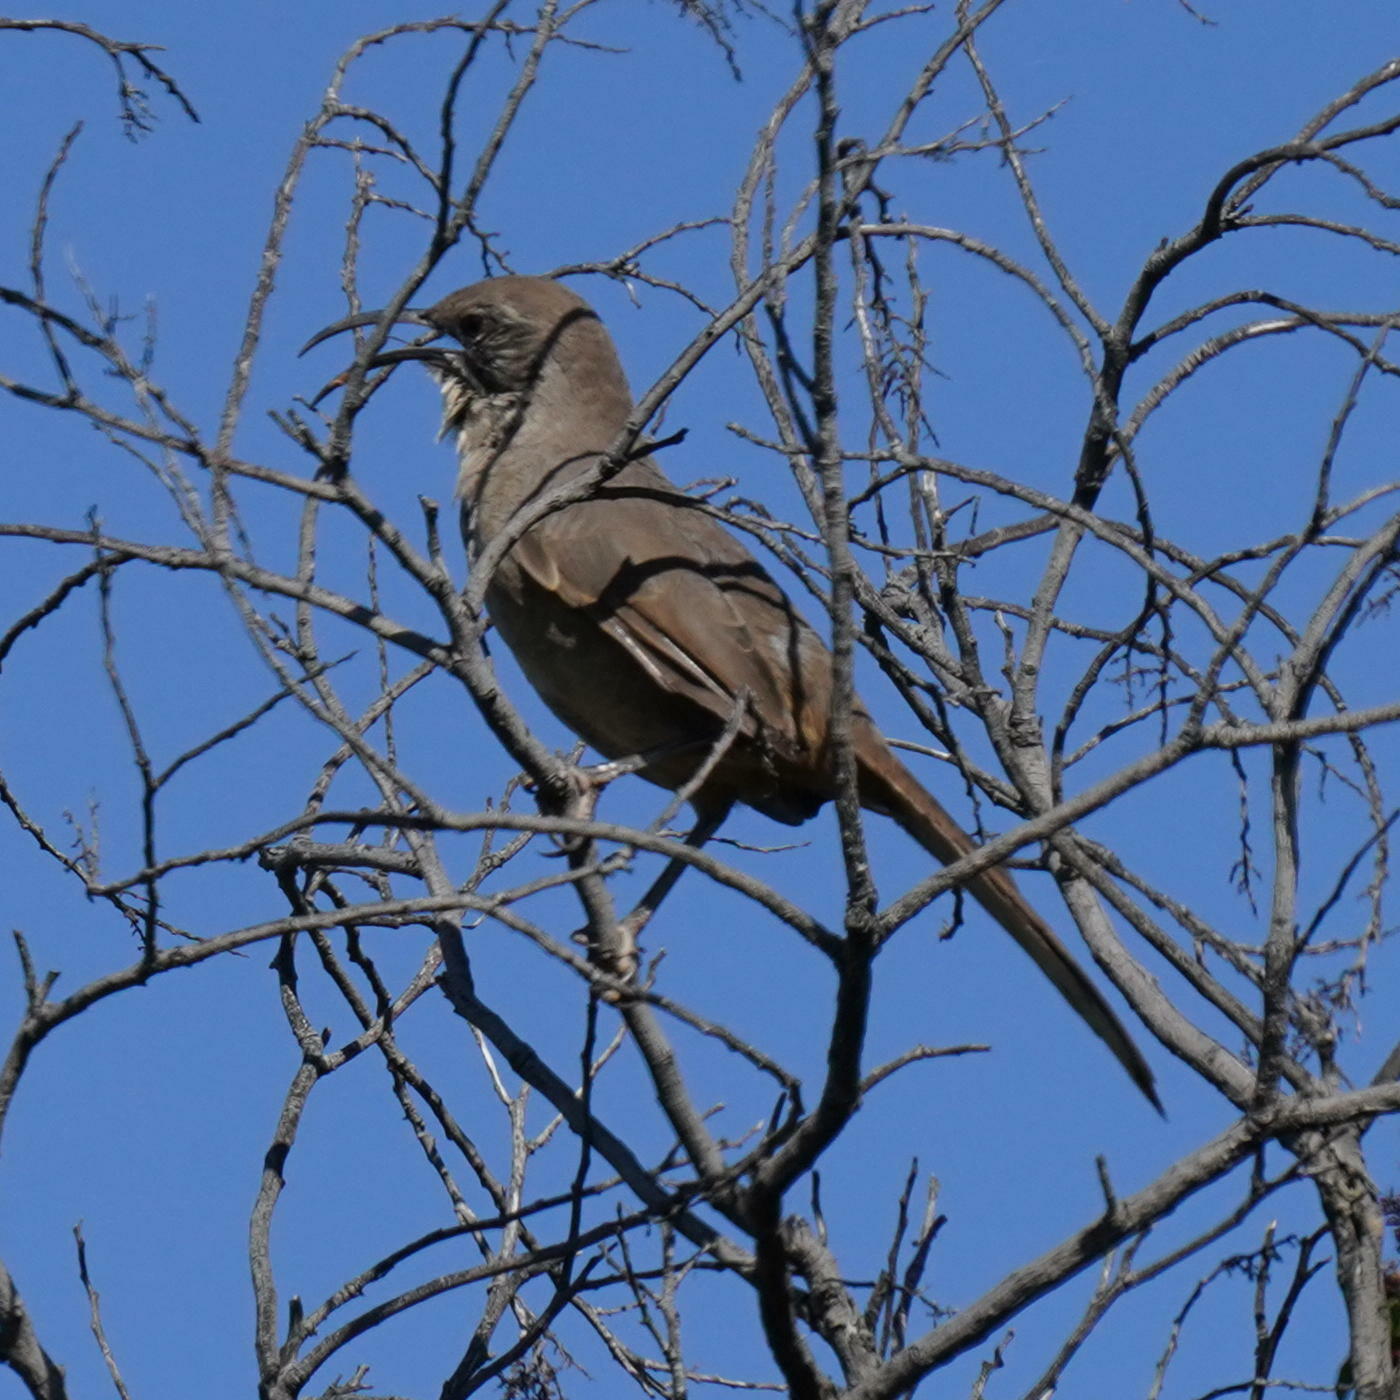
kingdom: Animalia
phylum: Chordata
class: Aves
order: Passeriformes
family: Mimidae
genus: Toxostoma
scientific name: Toxostoma redivivum
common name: California thrasher
